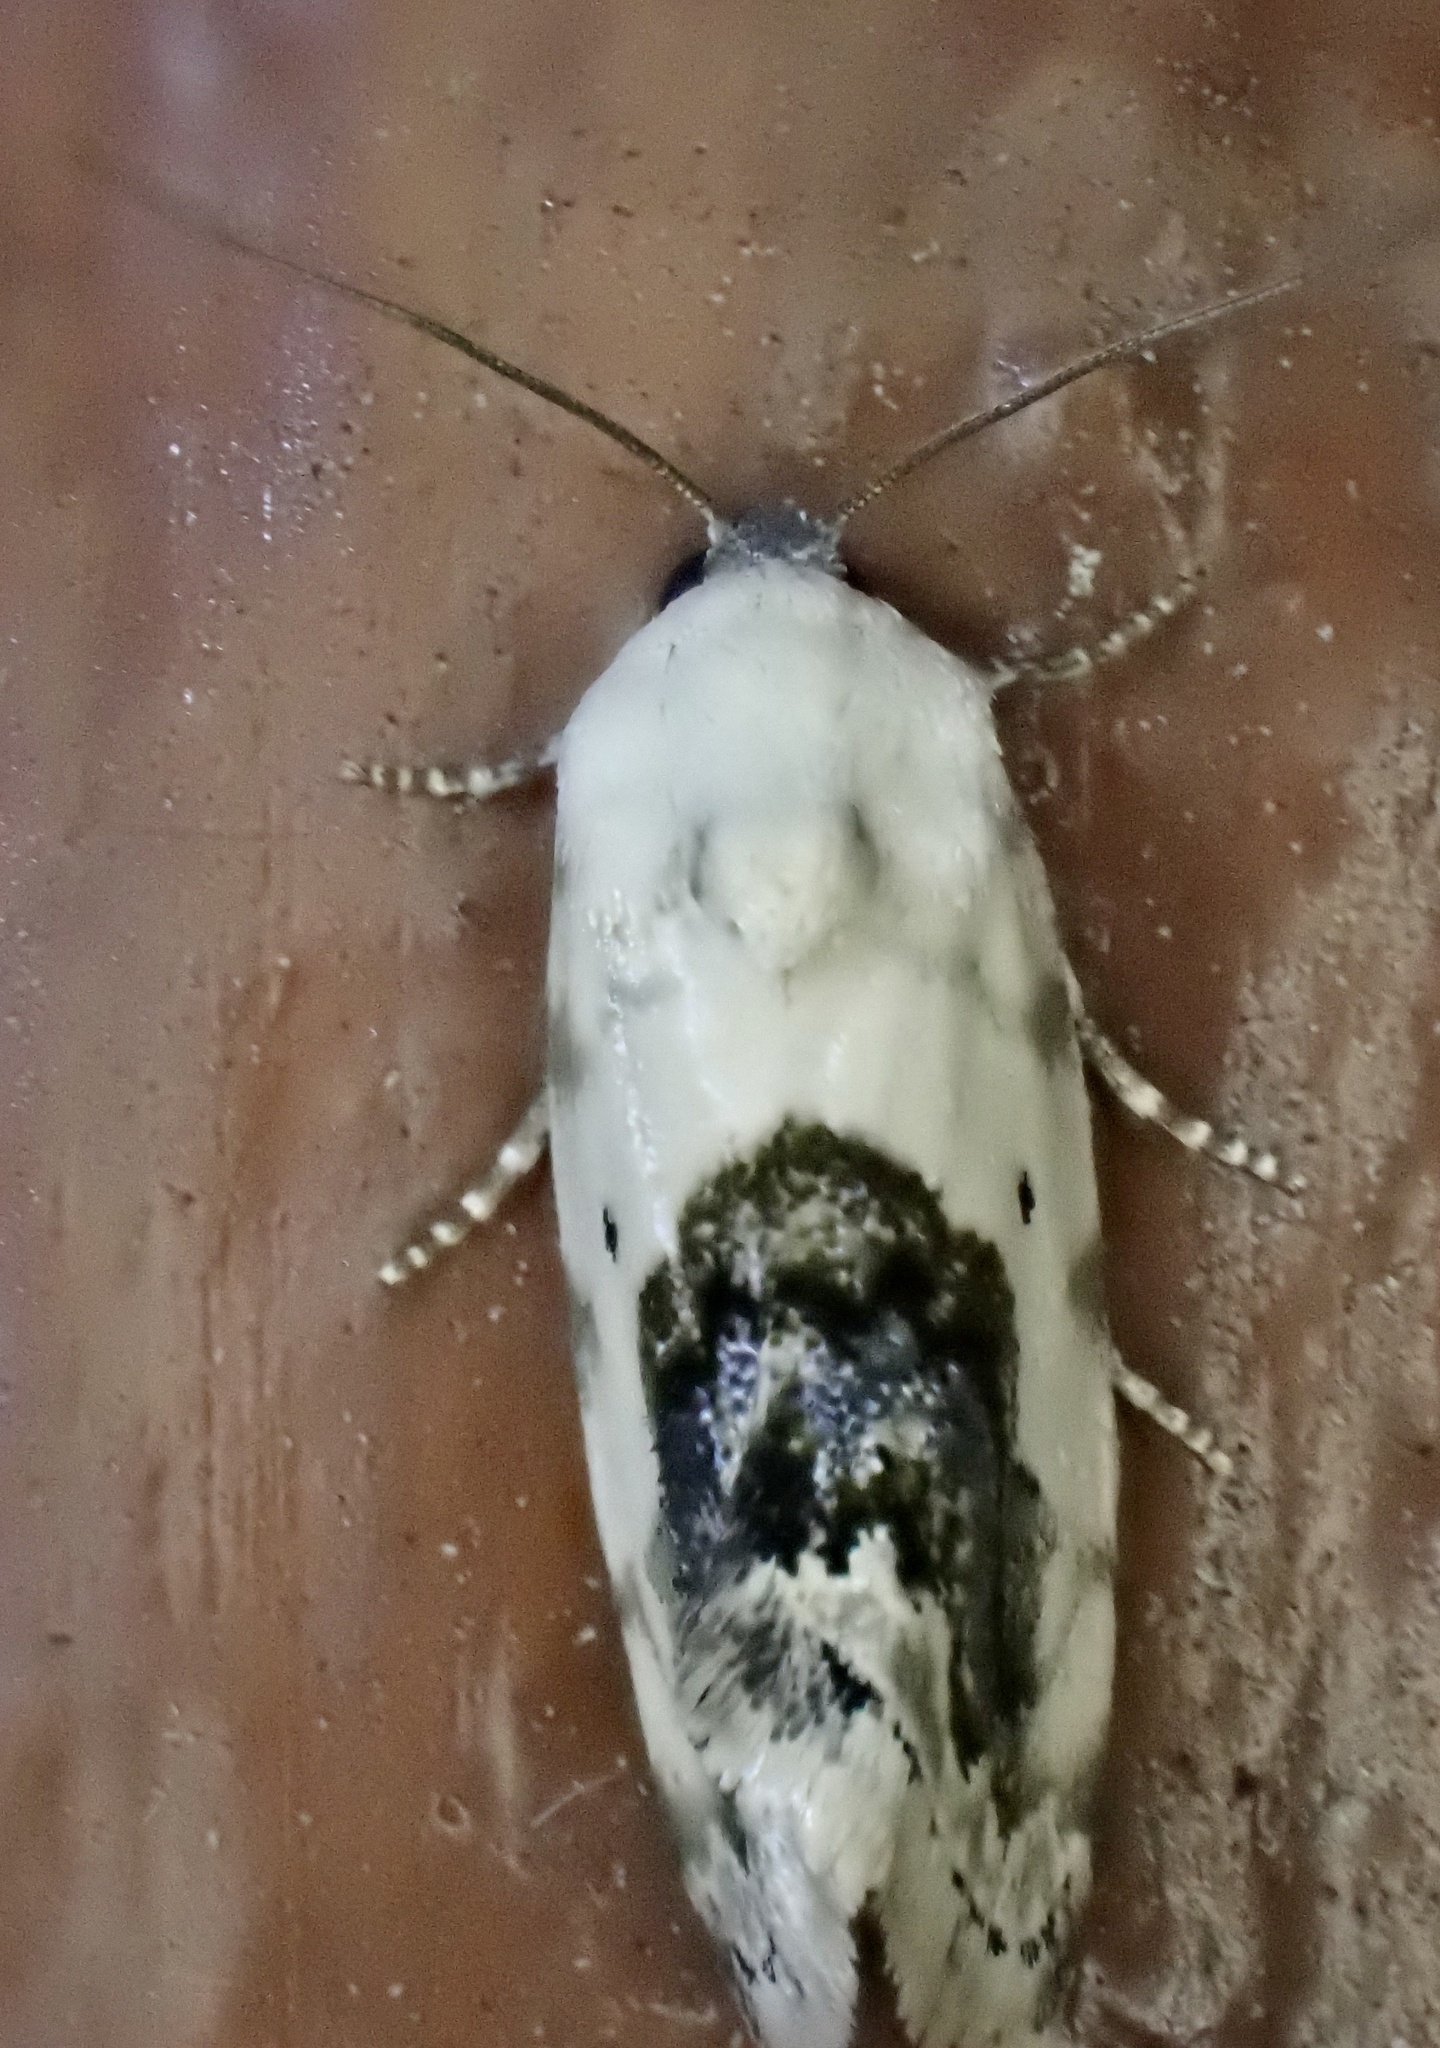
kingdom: Animalia
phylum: Arthropoda
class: Insecta
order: Lepidoptera
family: Noctuidae
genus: Acontia
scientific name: Acontia erastrioides
